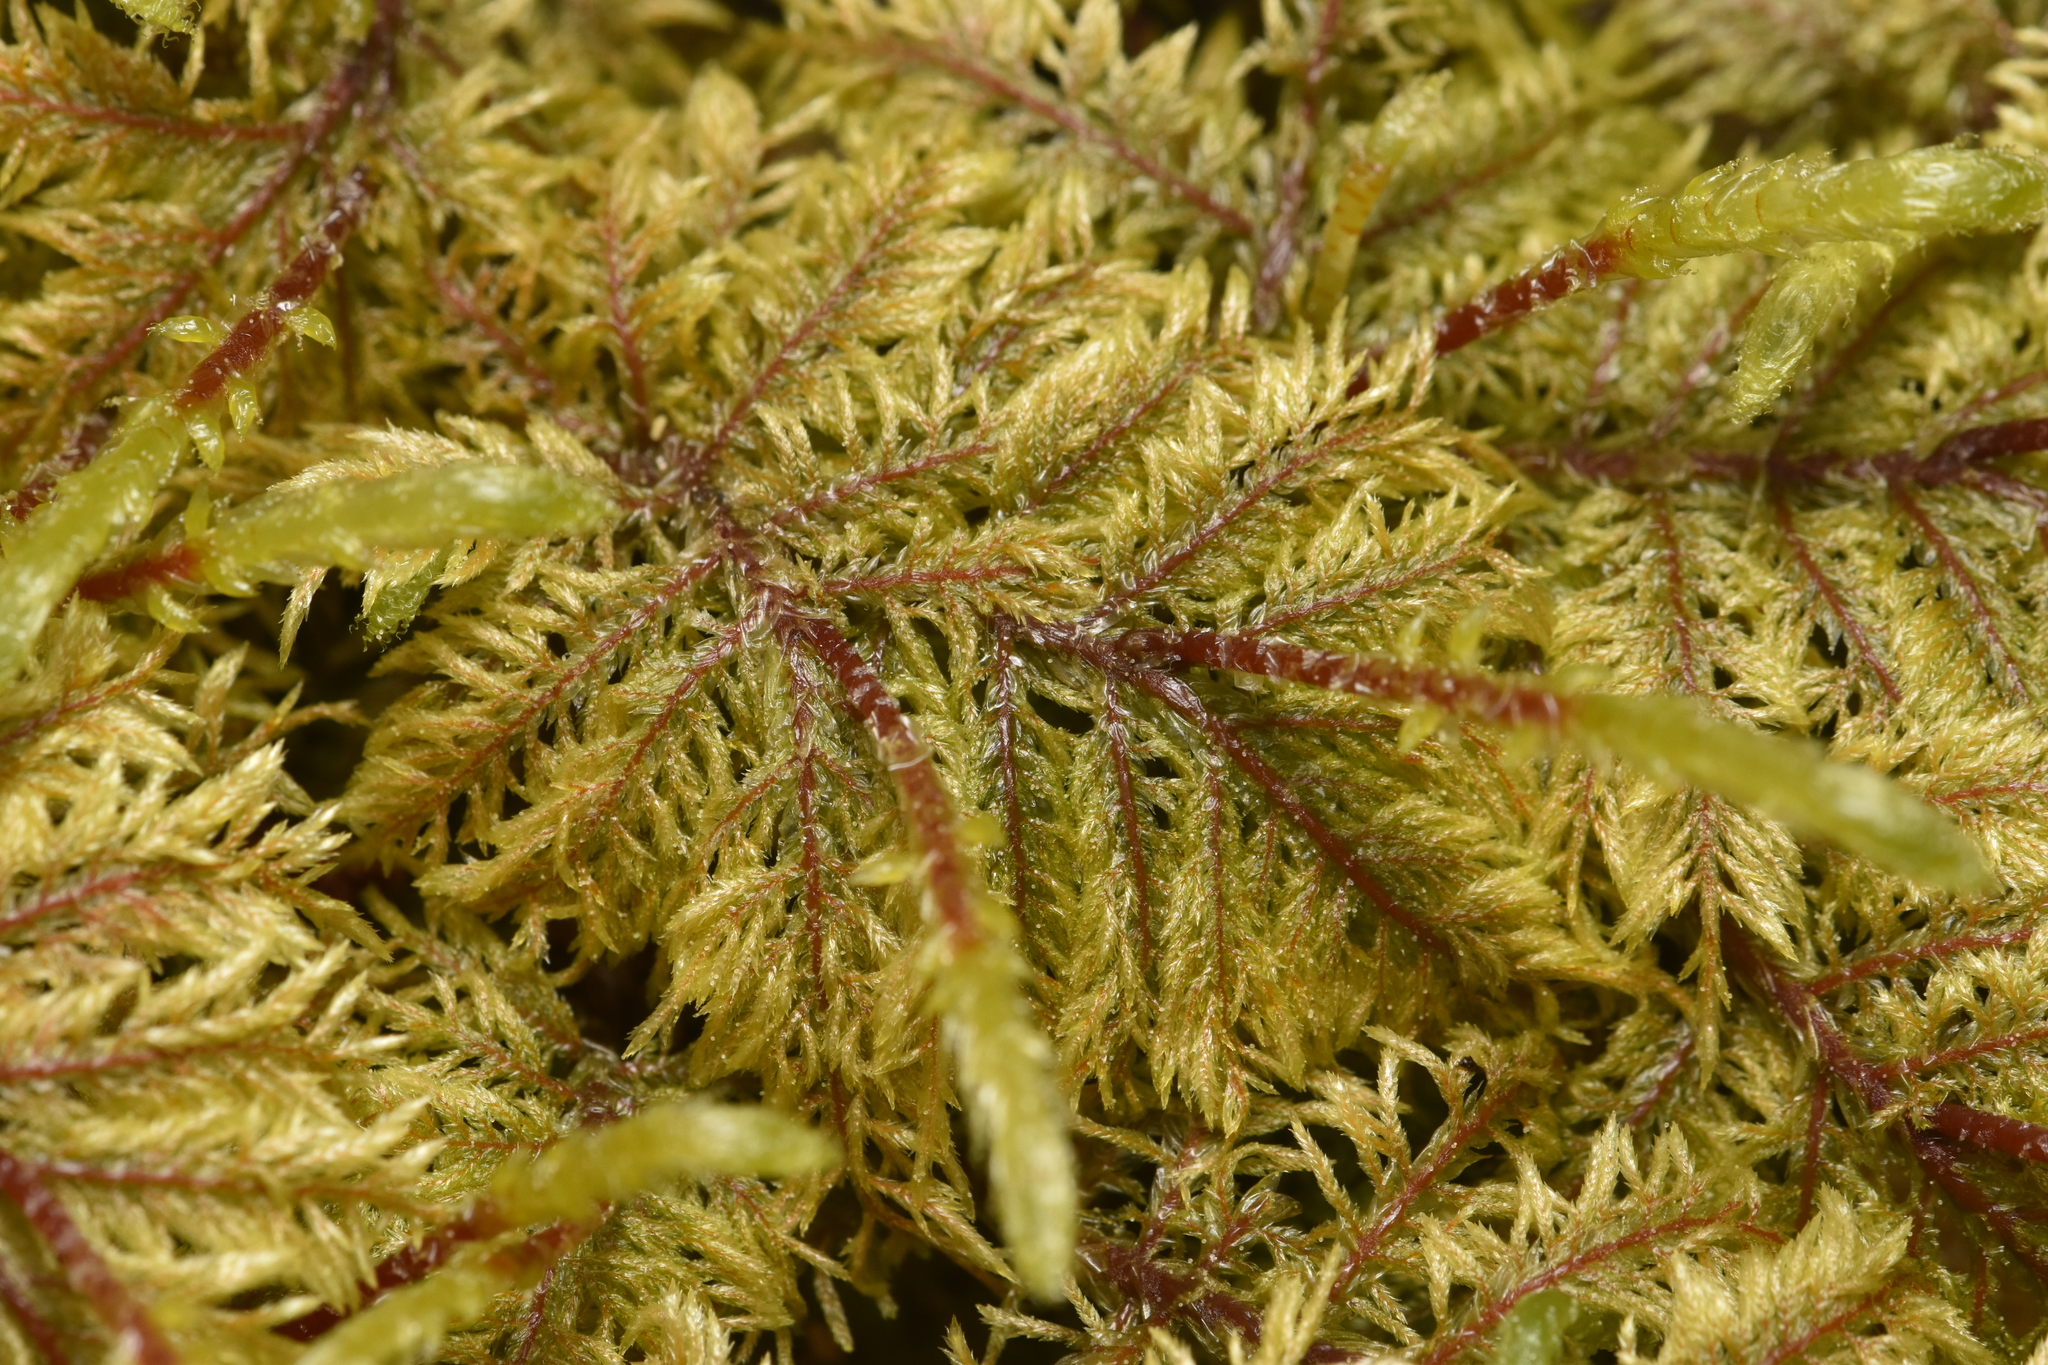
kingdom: Plantae
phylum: Bryophyta
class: Bryopsida
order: Hypnales
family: Hylocomiaceae
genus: Hylocomium
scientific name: Hylocomium splendens
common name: Stairstep moss
